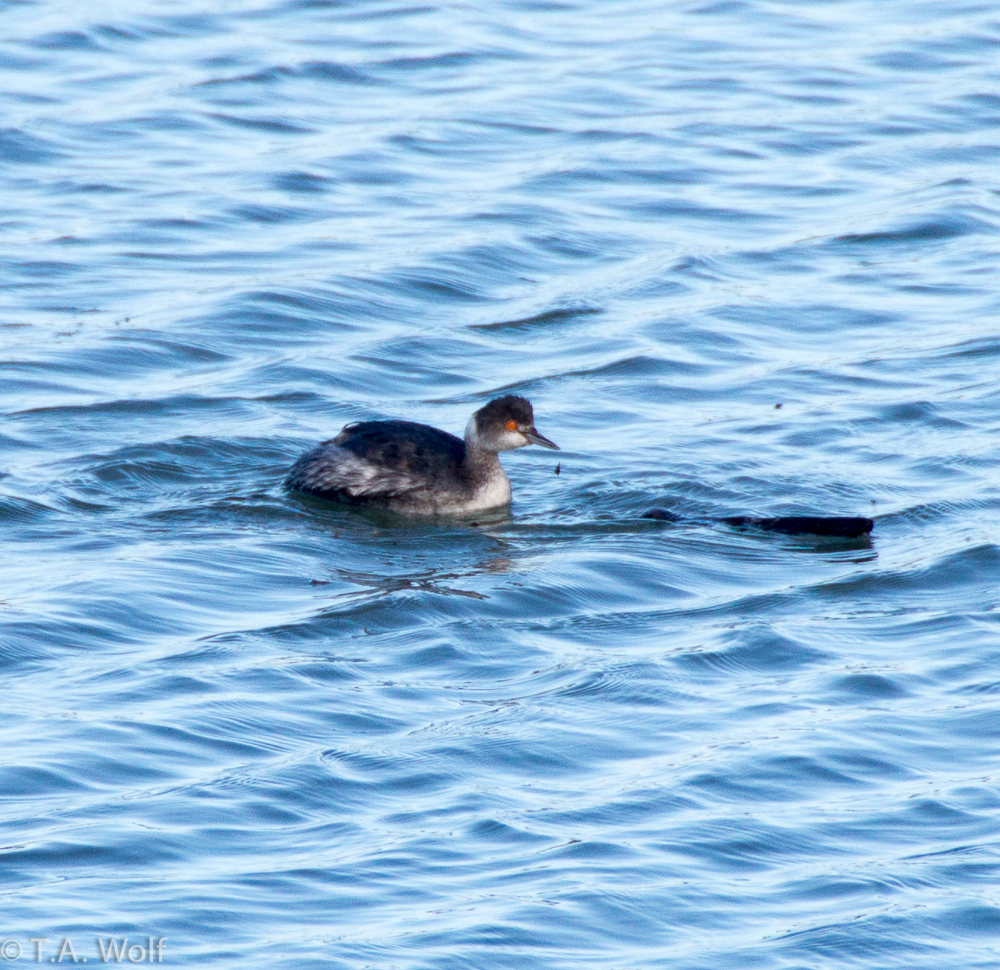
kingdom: Animalia
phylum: Chordata
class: Aves
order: Podicipediformes
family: Podicipedidae
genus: Podiceps
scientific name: Podiceps nigricollis
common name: Black-necked grebe
